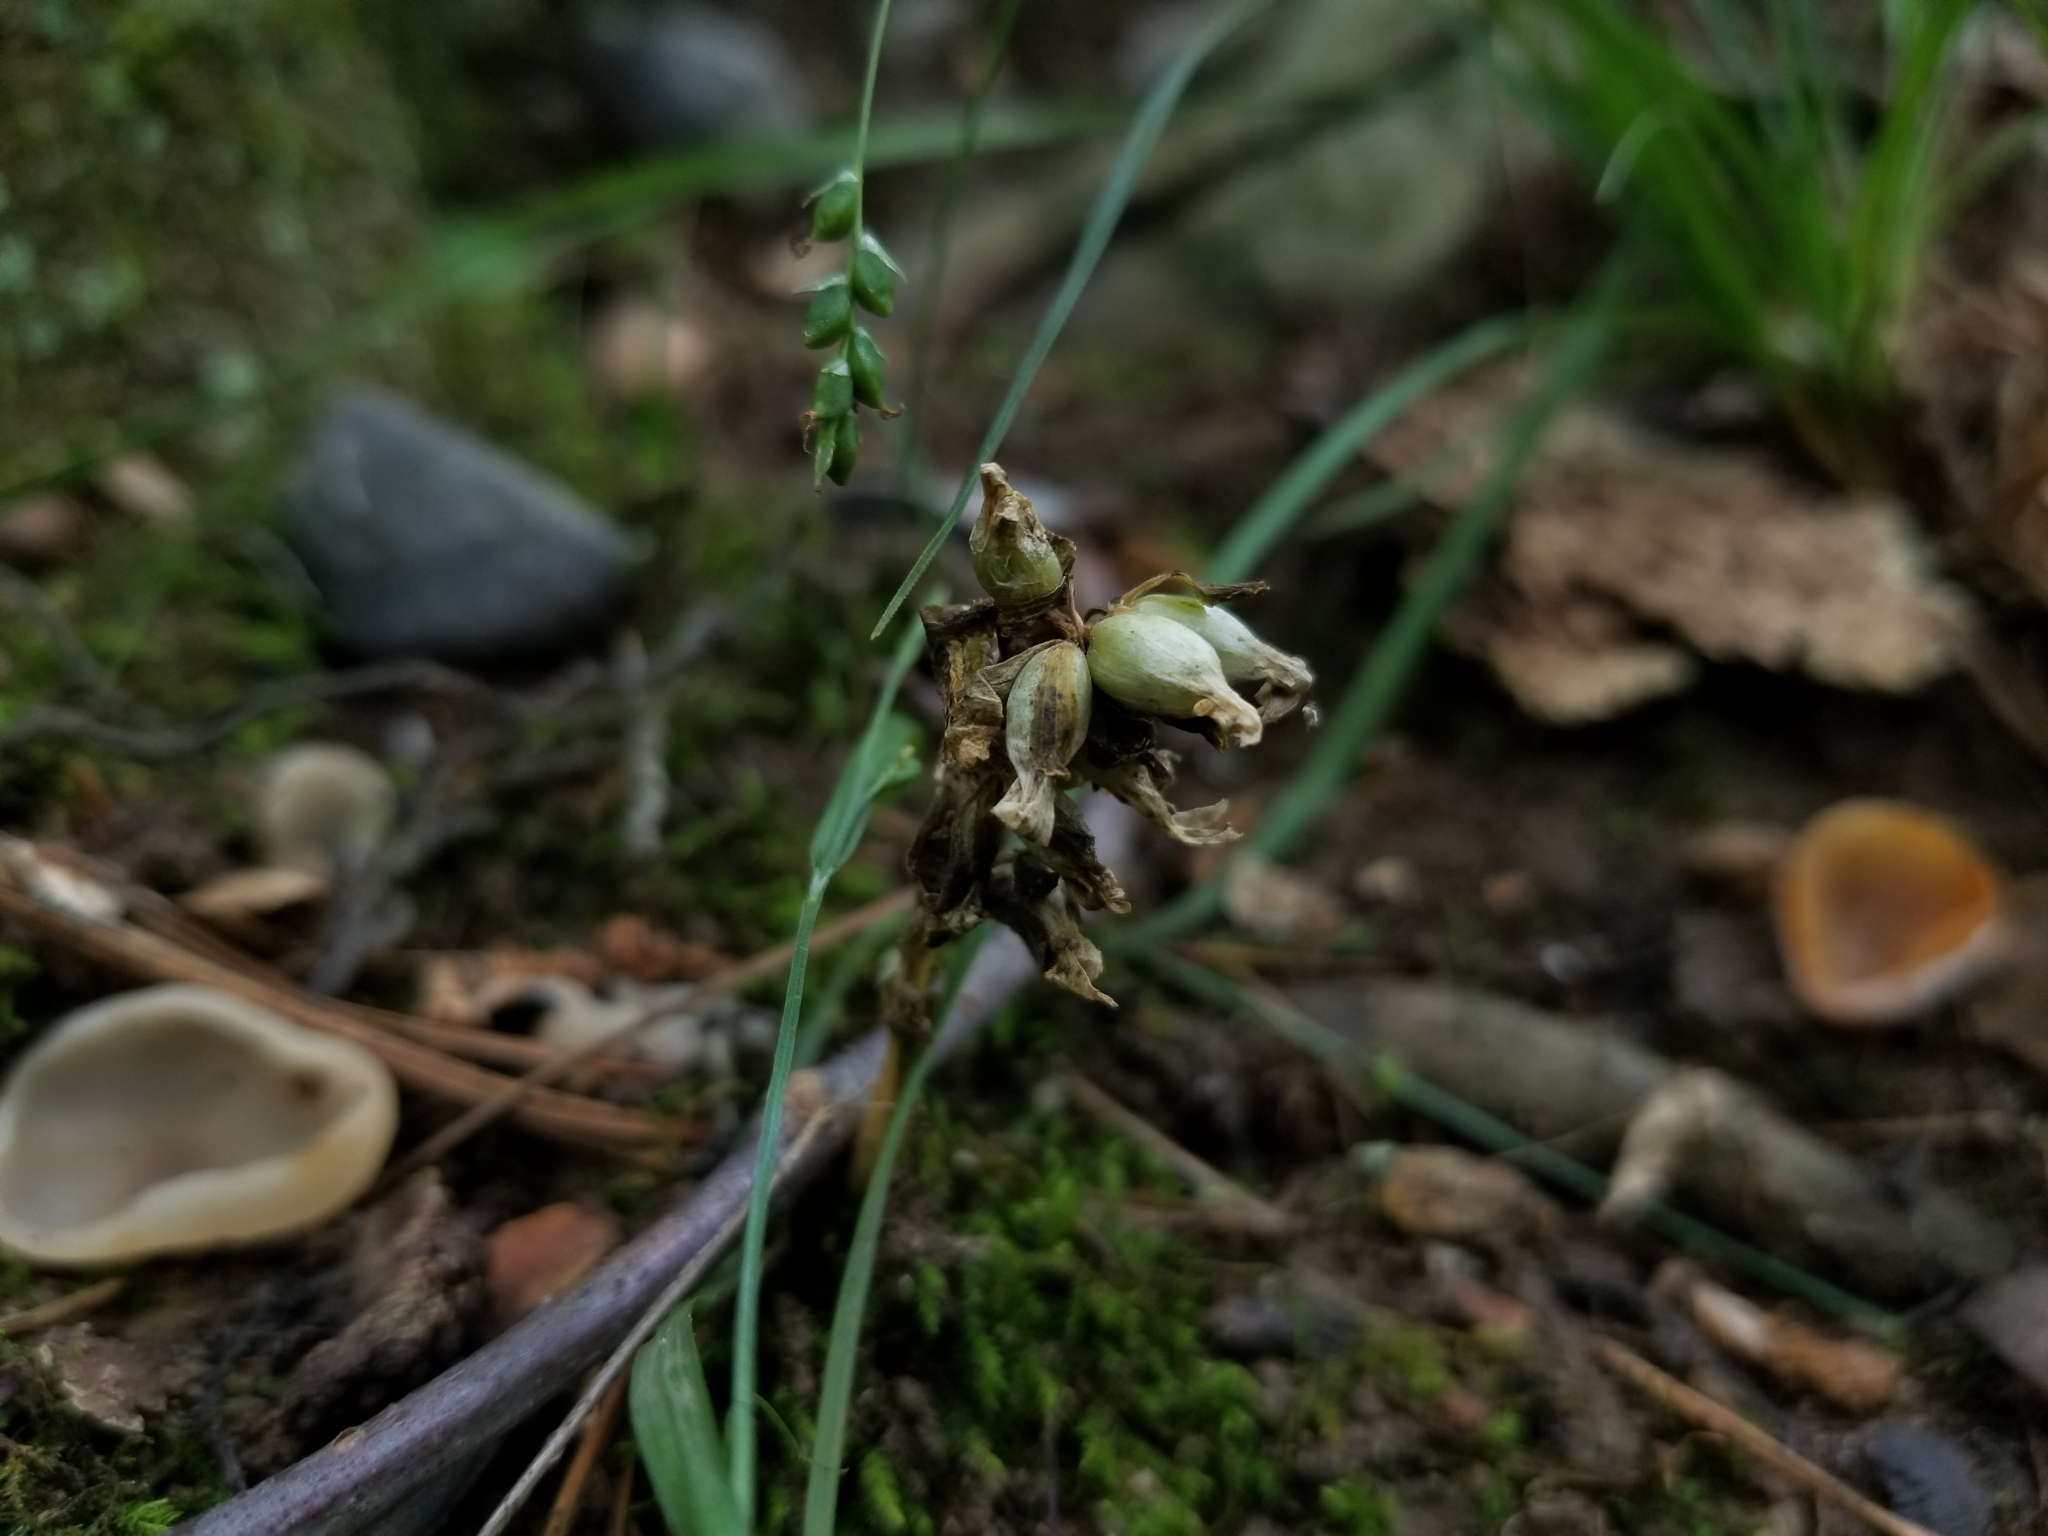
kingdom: Plantae
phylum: Tracheophyta
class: Magnoliopsida
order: Gentianales
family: Gentianaceae
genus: Obolaria
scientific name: Obolaria virginica
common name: Pennywort
